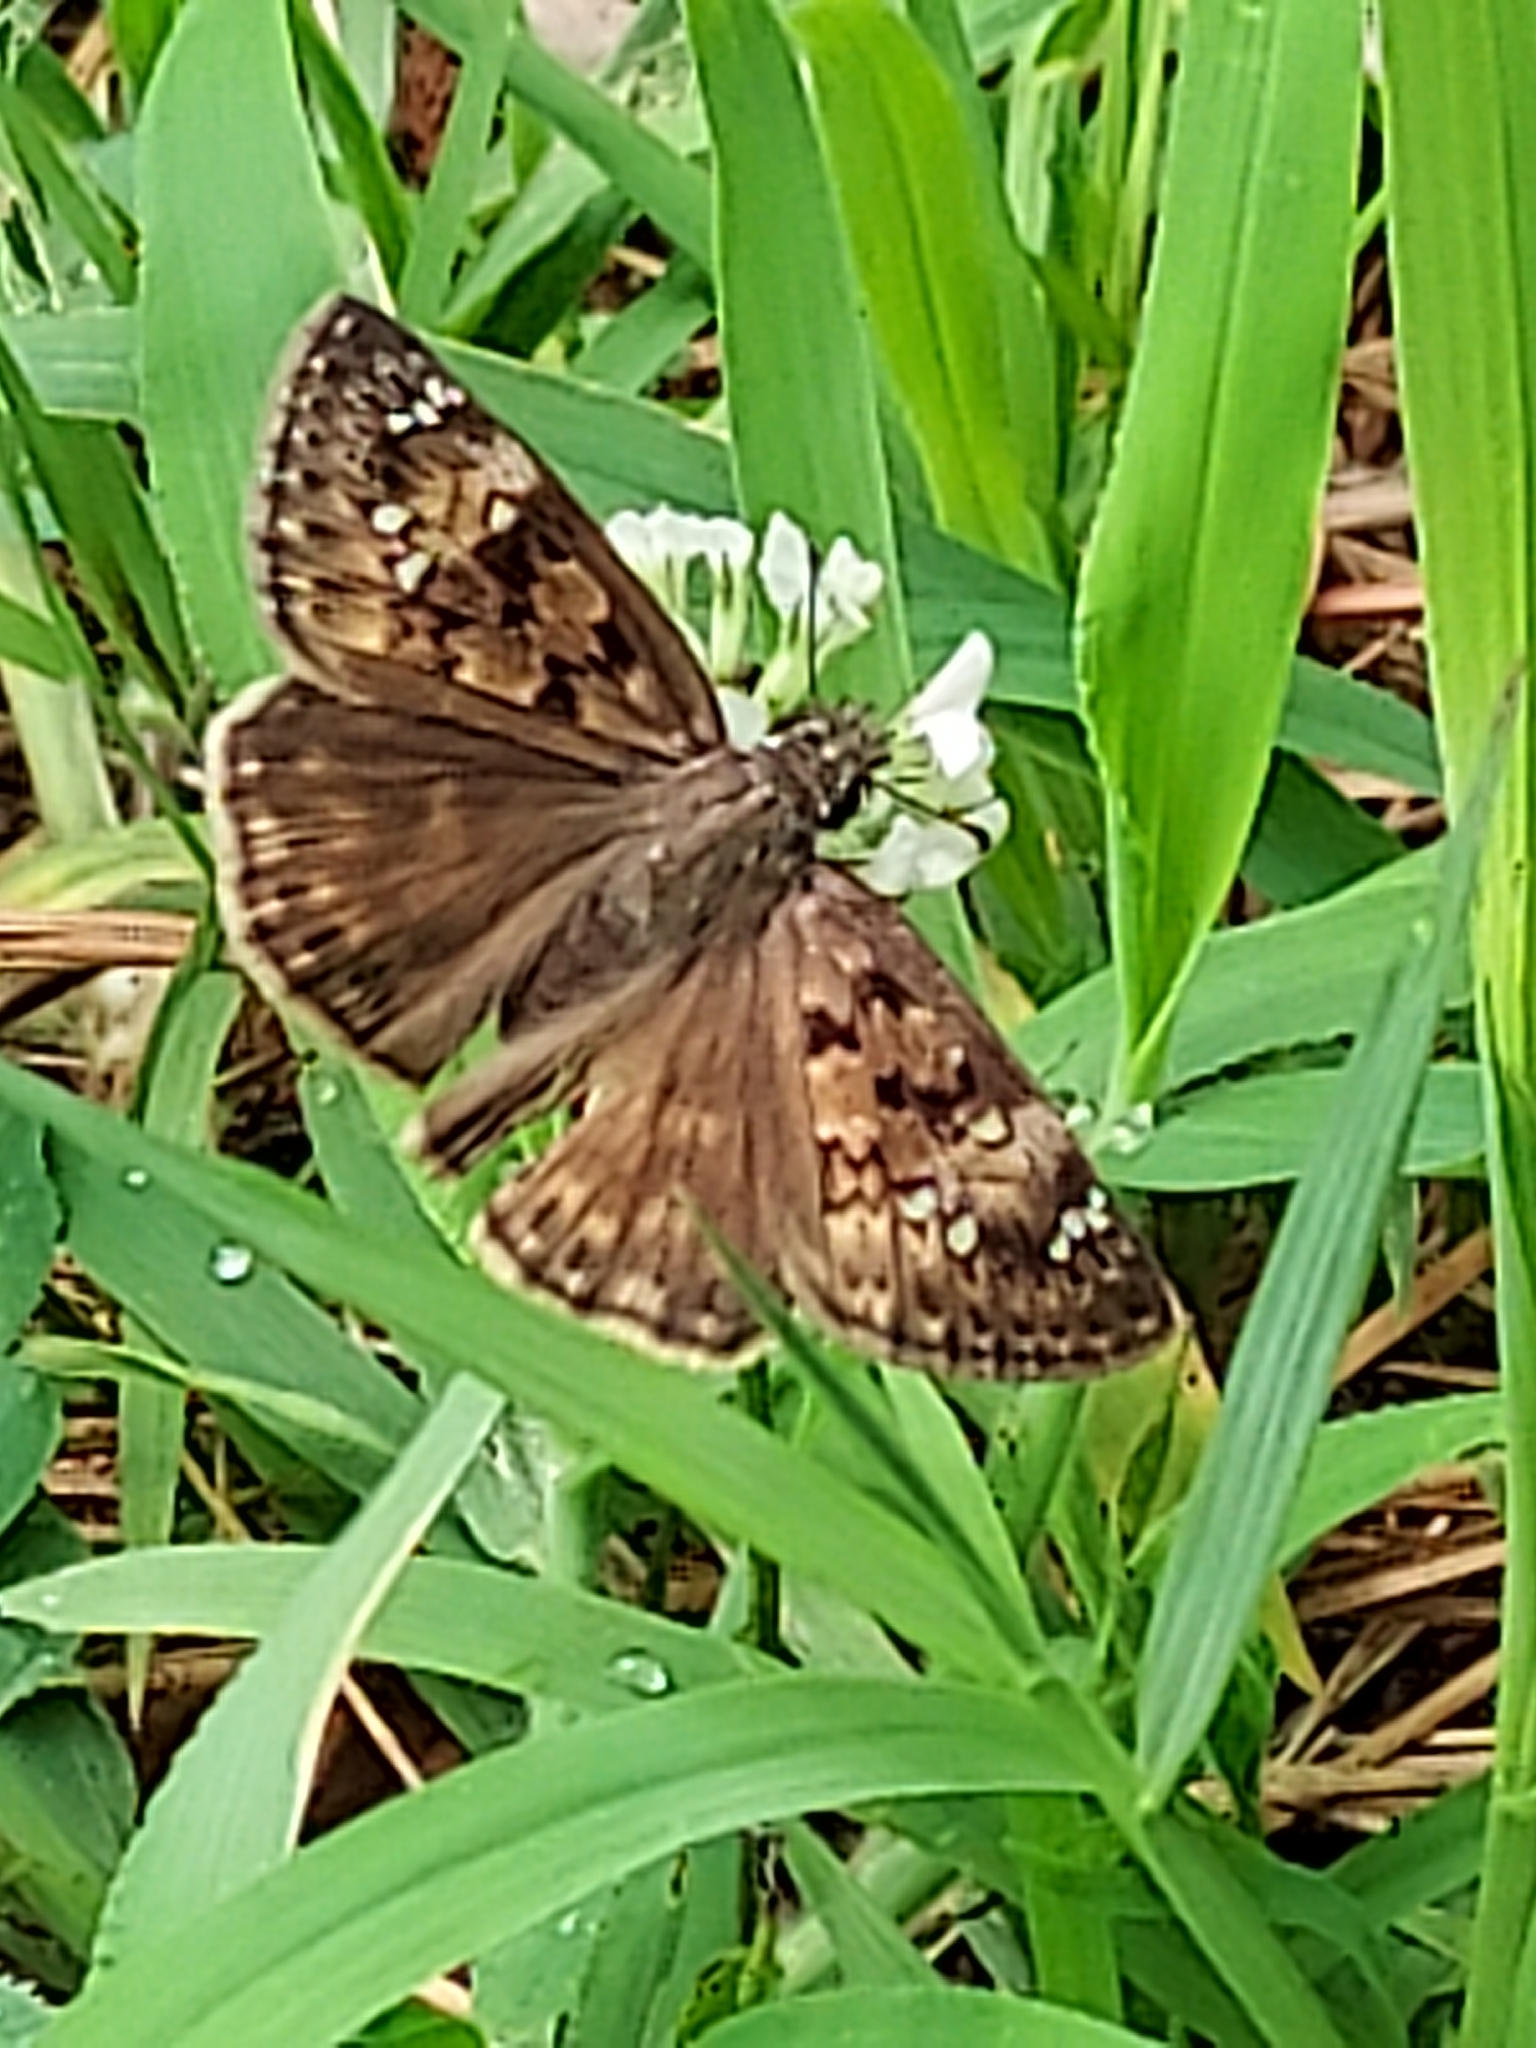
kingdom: Animalia
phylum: Arthropoda
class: Insecta
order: Lepidoptera
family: Hesperiidae
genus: Erynnis
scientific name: Erynnis horatius
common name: Horace's duskywing
